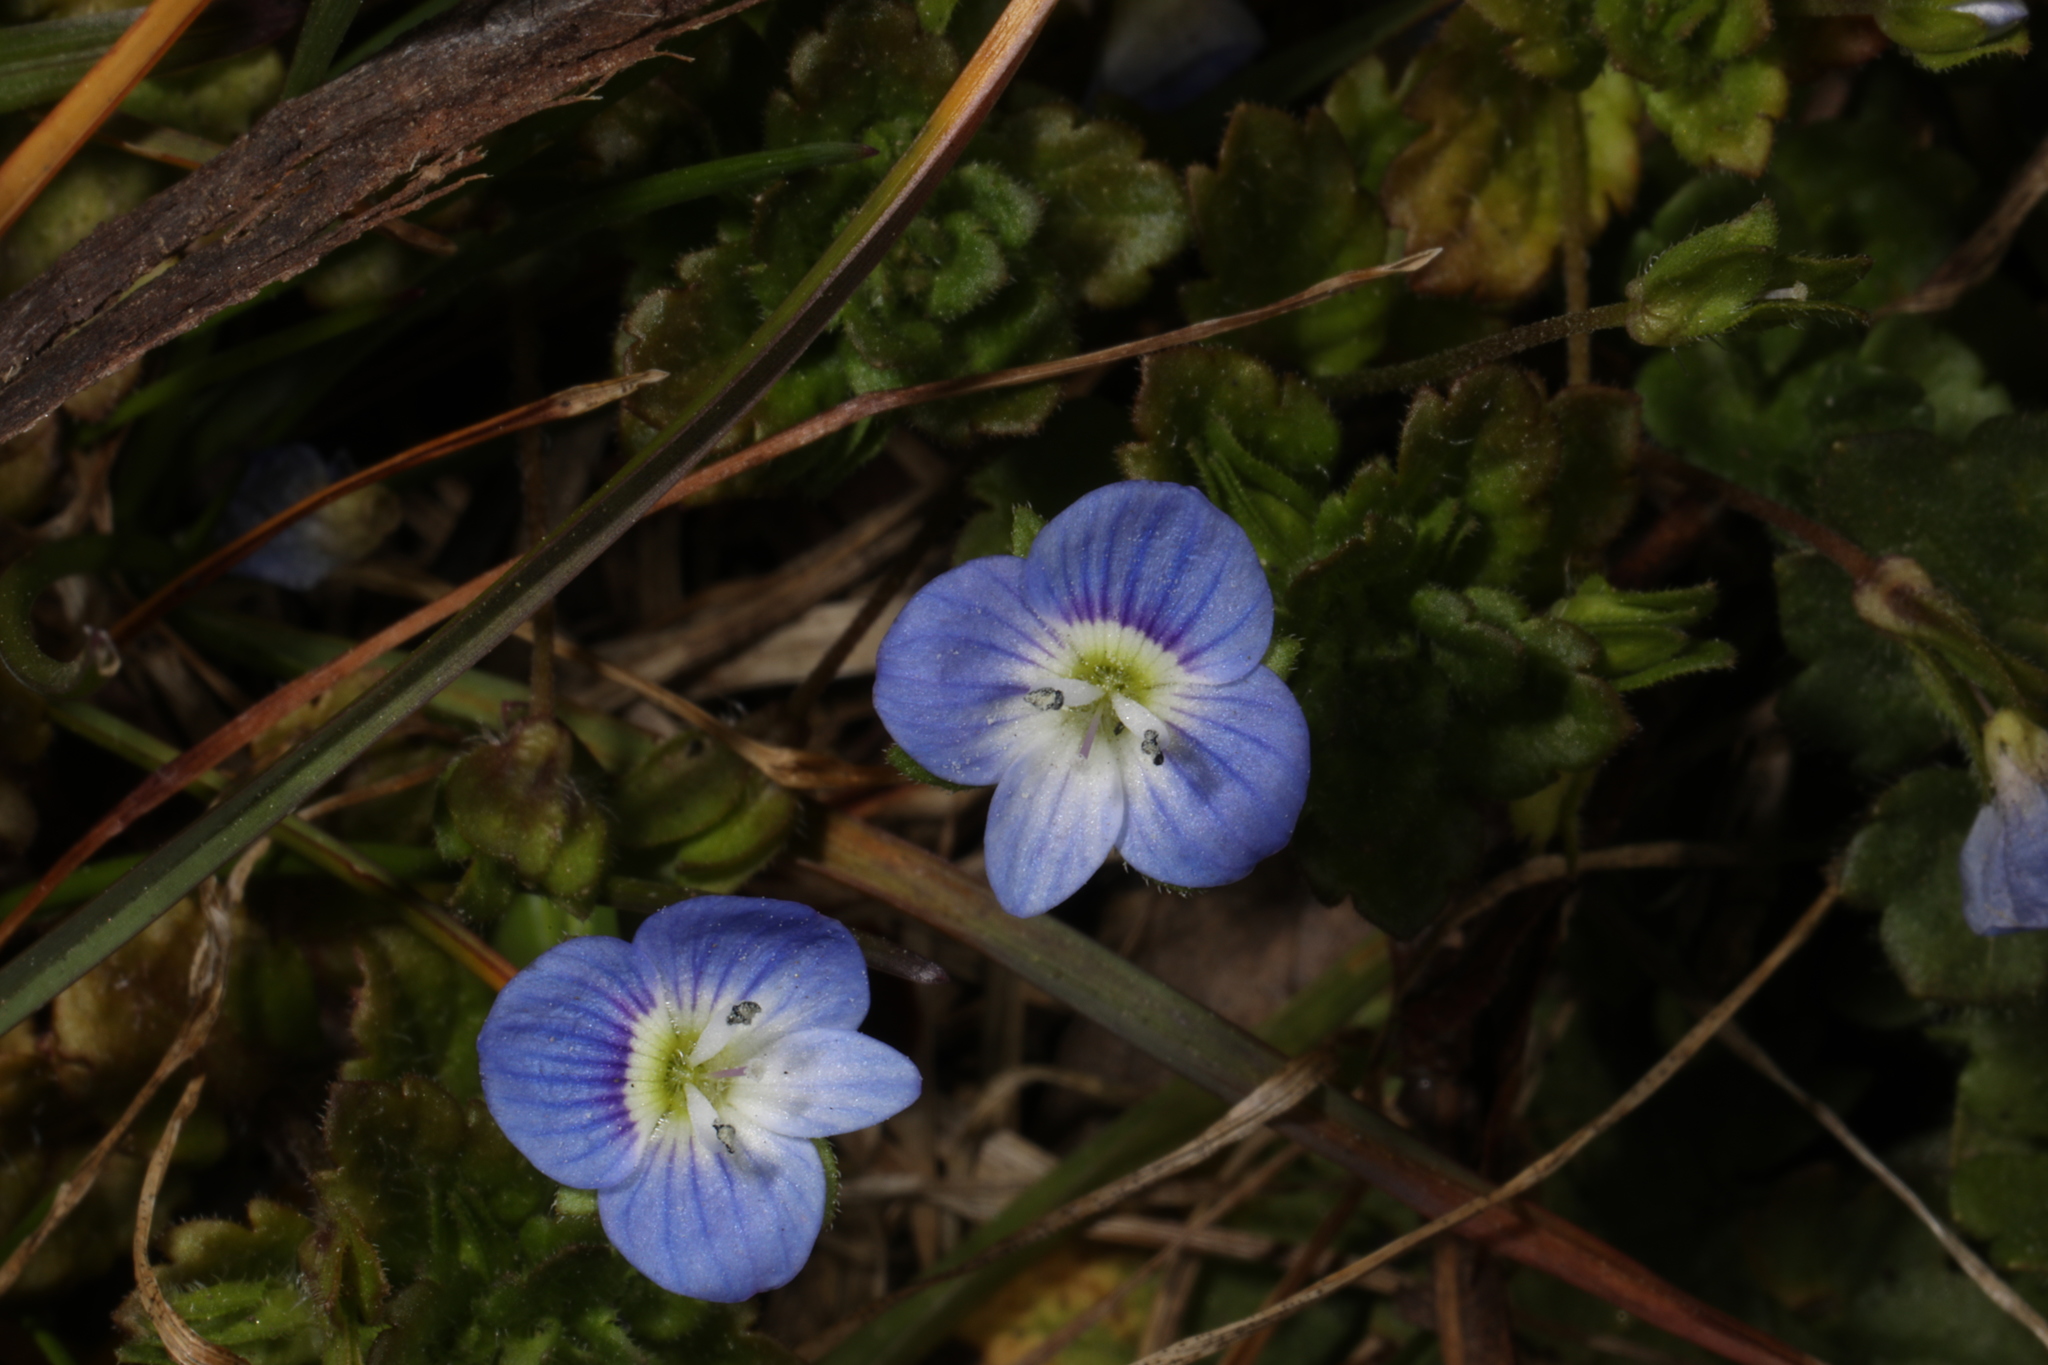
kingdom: Plantae
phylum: Tracheophyta
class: Magnoliopsida
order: Lamiales
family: Plantaginaceae
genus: Veronica
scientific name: Veronica persica
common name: Common field-speedwell
